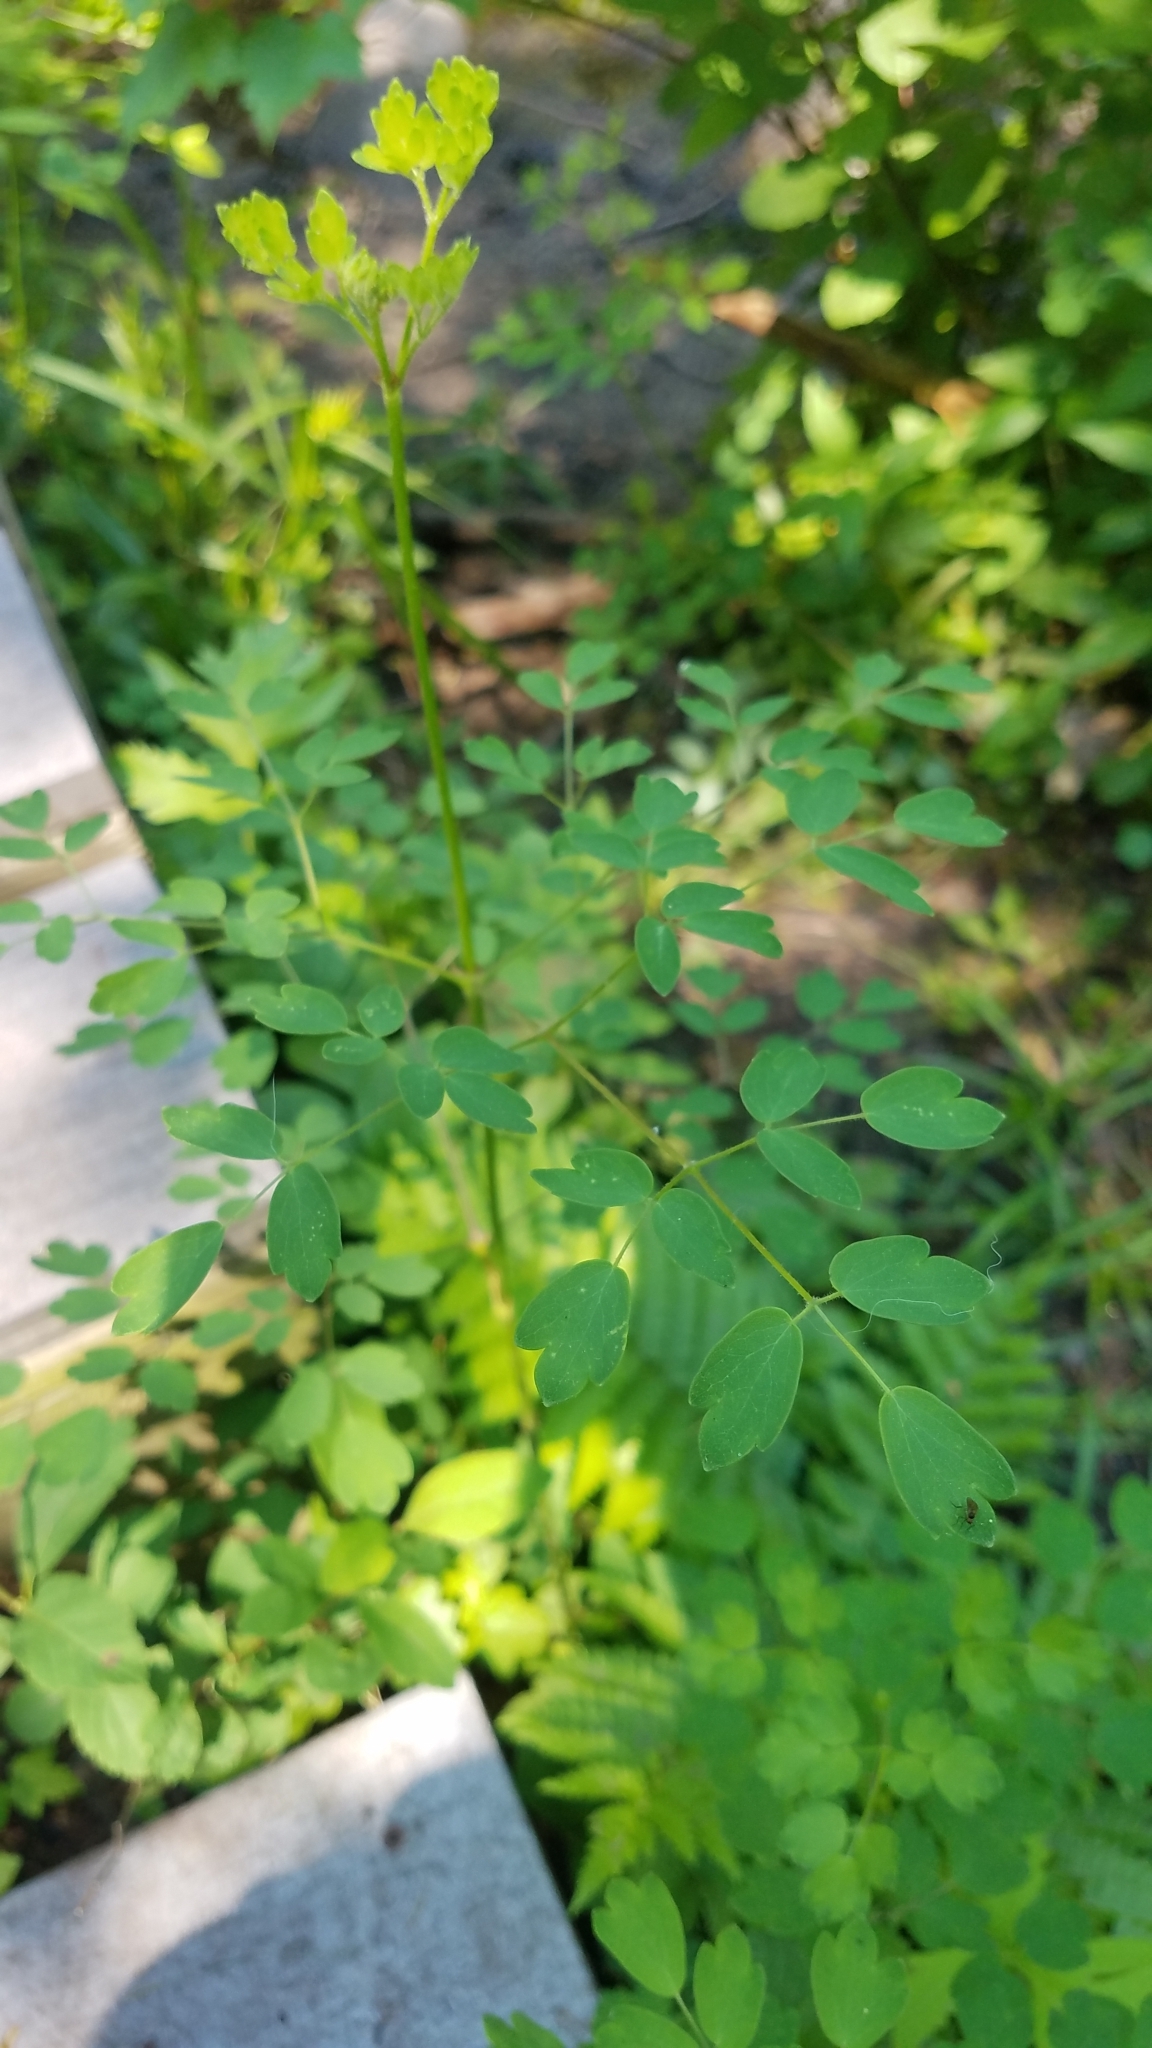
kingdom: Plantae
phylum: Tracheophyta
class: Magnoliopsida
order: Ranunculales
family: Ranunculaceae
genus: Thalictrum
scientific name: Thalictrum pubescens
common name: King-of-the-meadow
